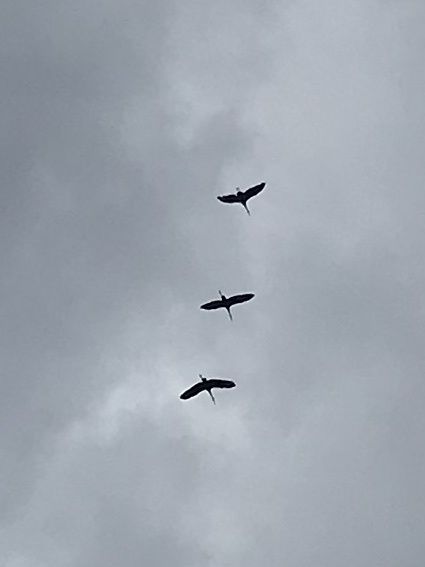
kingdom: Animalia
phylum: Chordata
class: Aves
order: Gruiformes
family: Gruidae
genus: Grus
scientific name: Grus canadensis
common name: Sandhill crane
